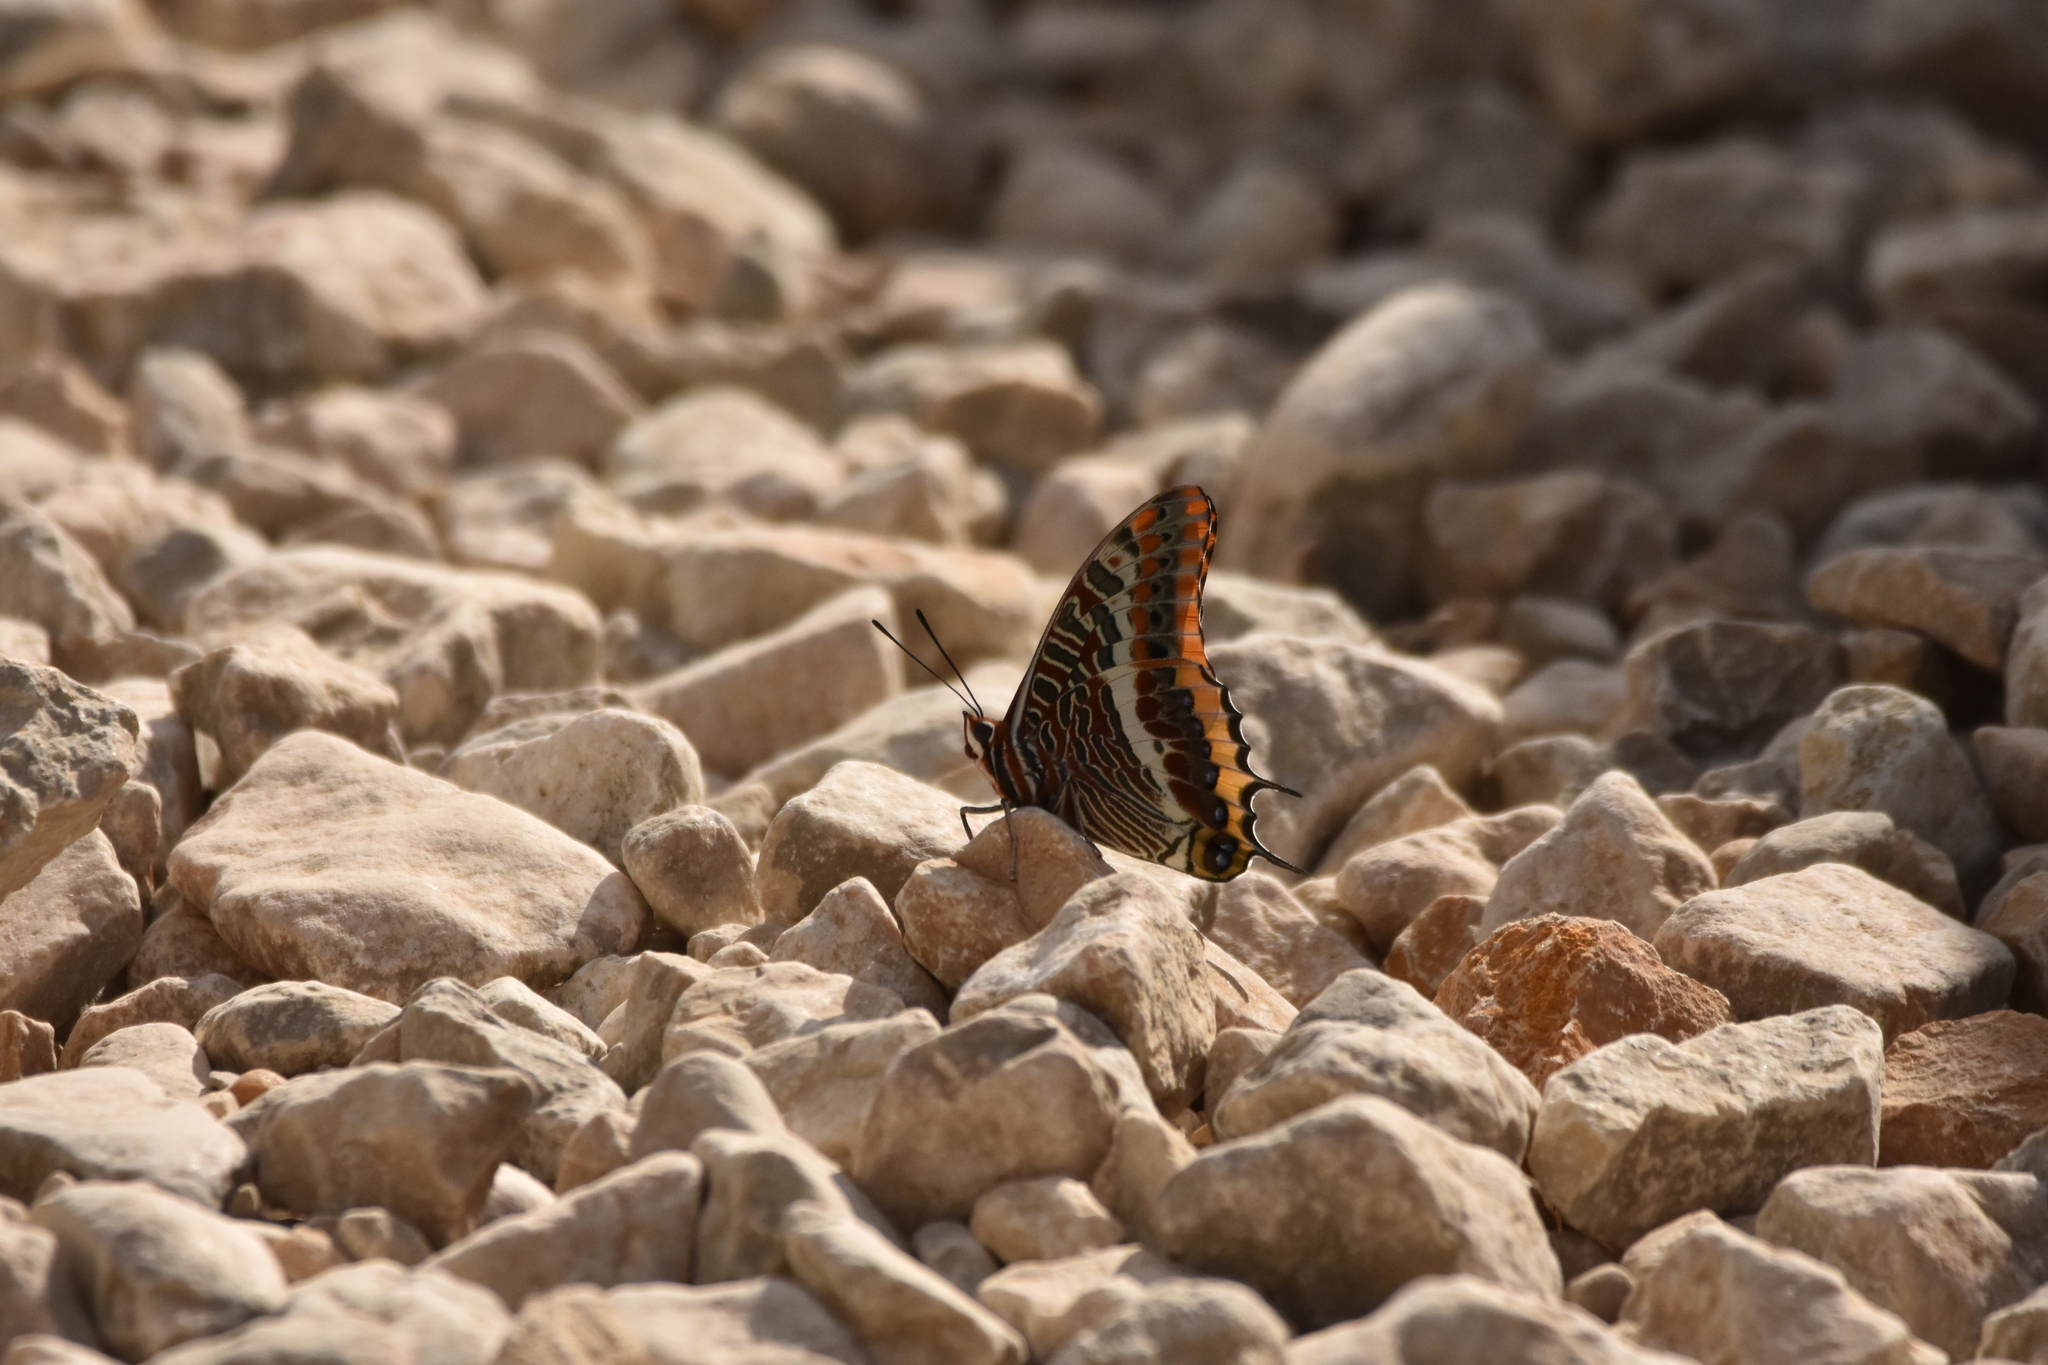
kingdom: Animalia
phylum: Arthropoda
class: Insecta
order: Lepidoptera
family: Nymphalidae
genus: Charaxes
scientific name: Charaxes jasius
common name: Two tailed pasha
